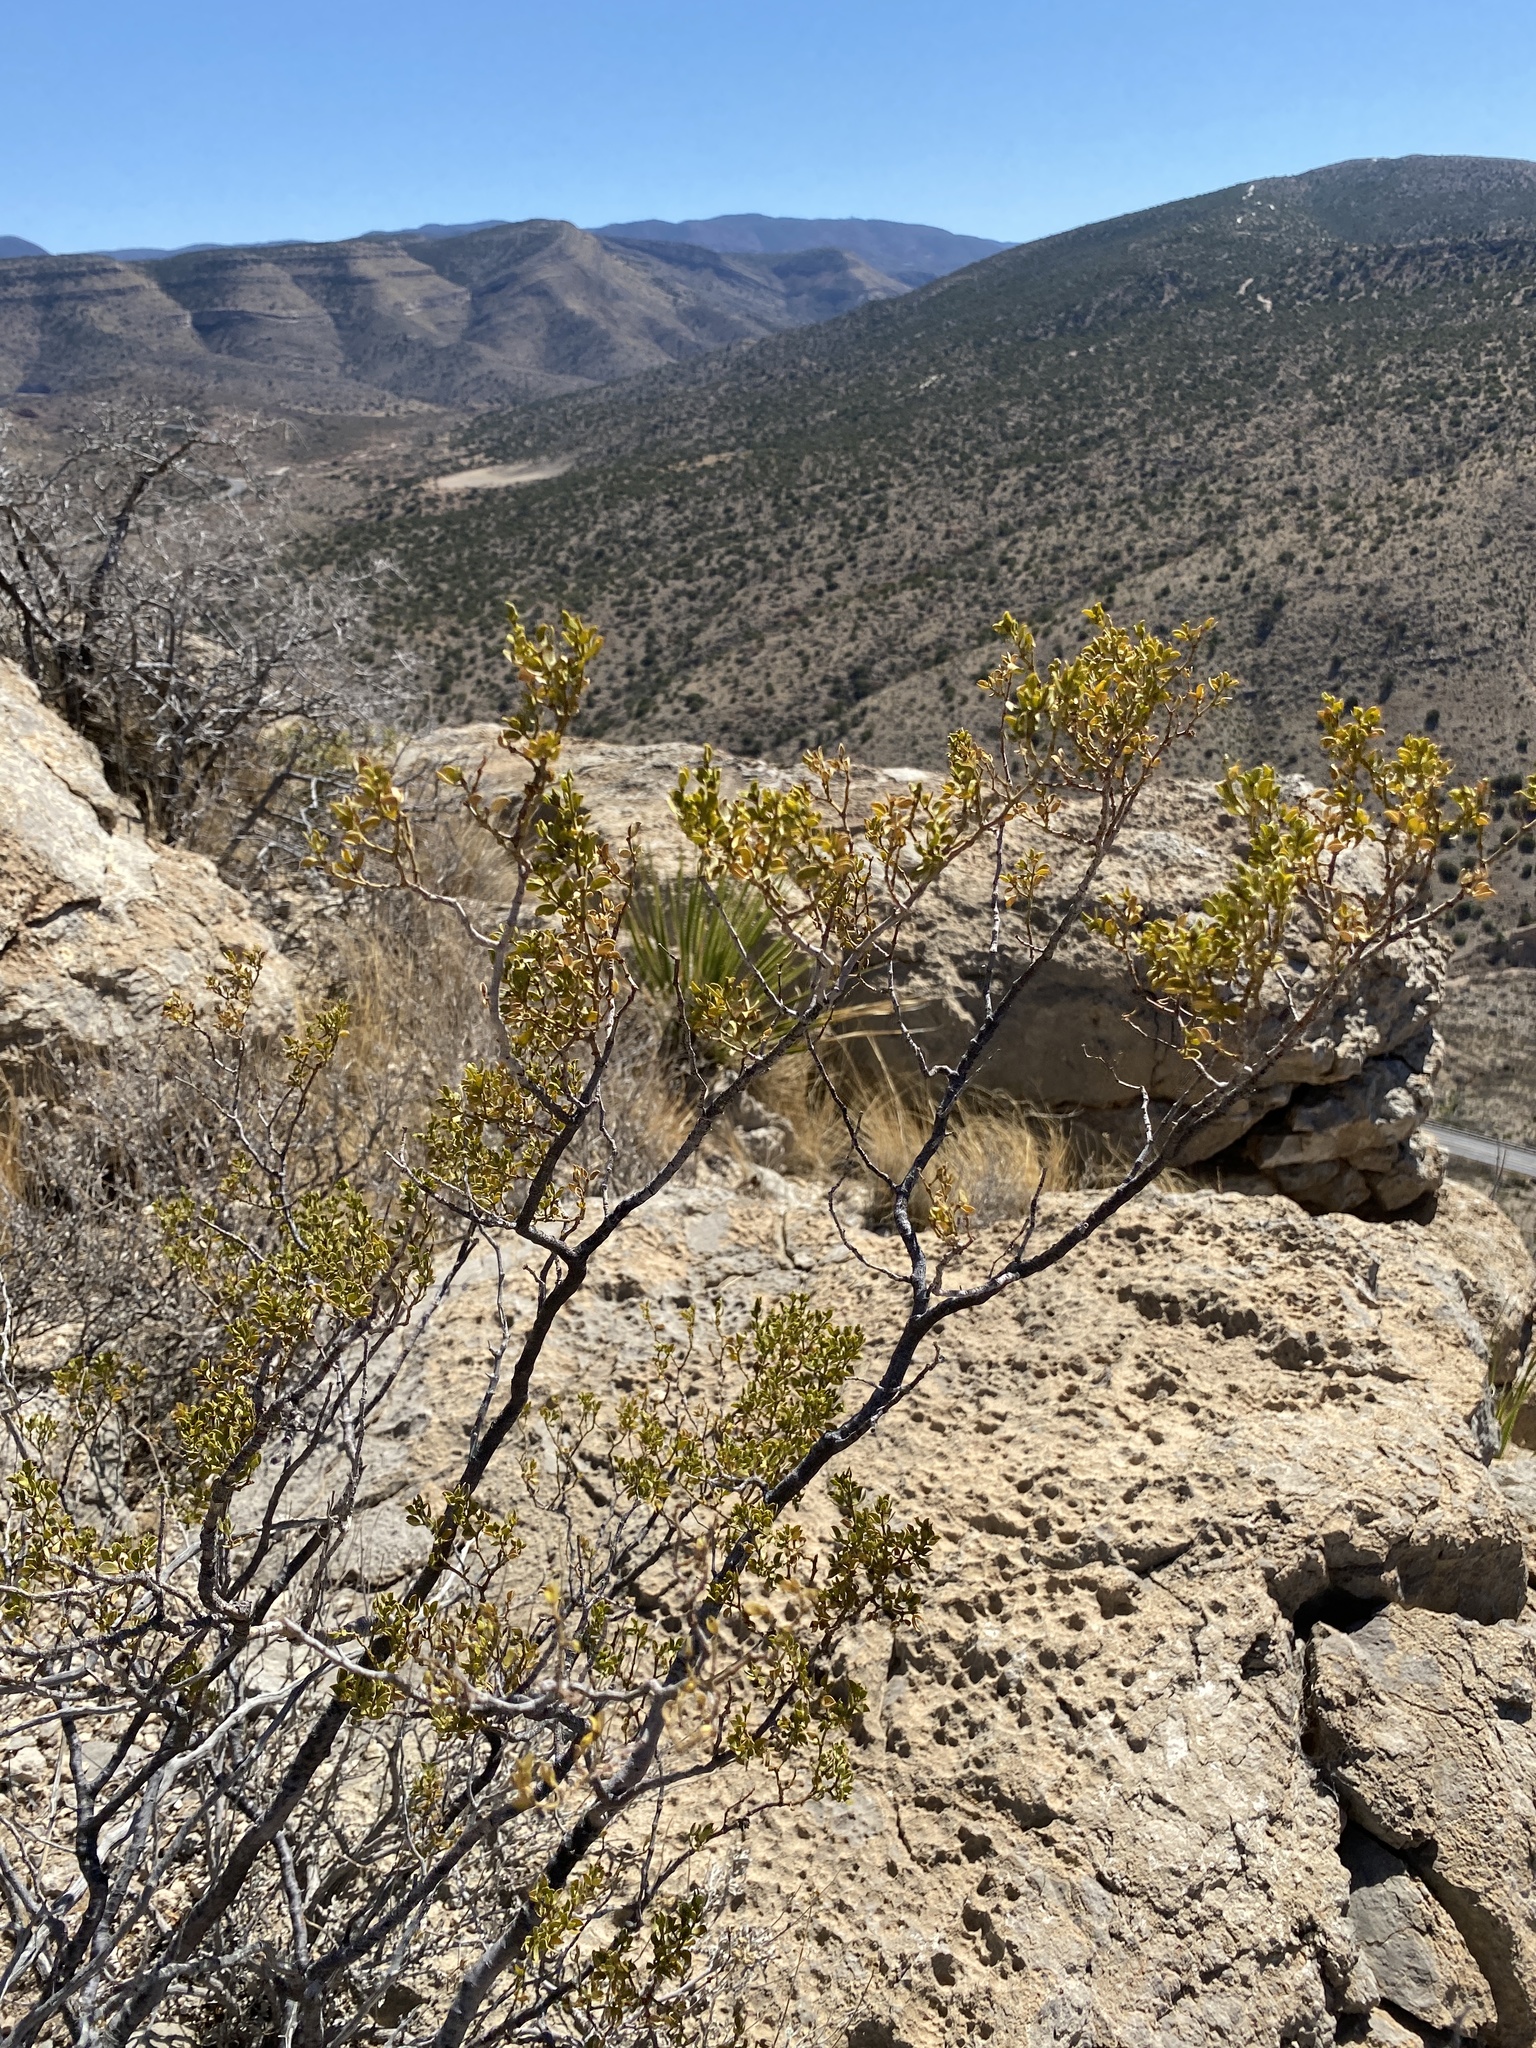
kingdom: Plantae
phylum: Tracheophyta
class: Magnoliopsida
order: Zygophyllales
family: Zygophyllaceae
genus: Larrea
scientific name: Larrea tridentata
